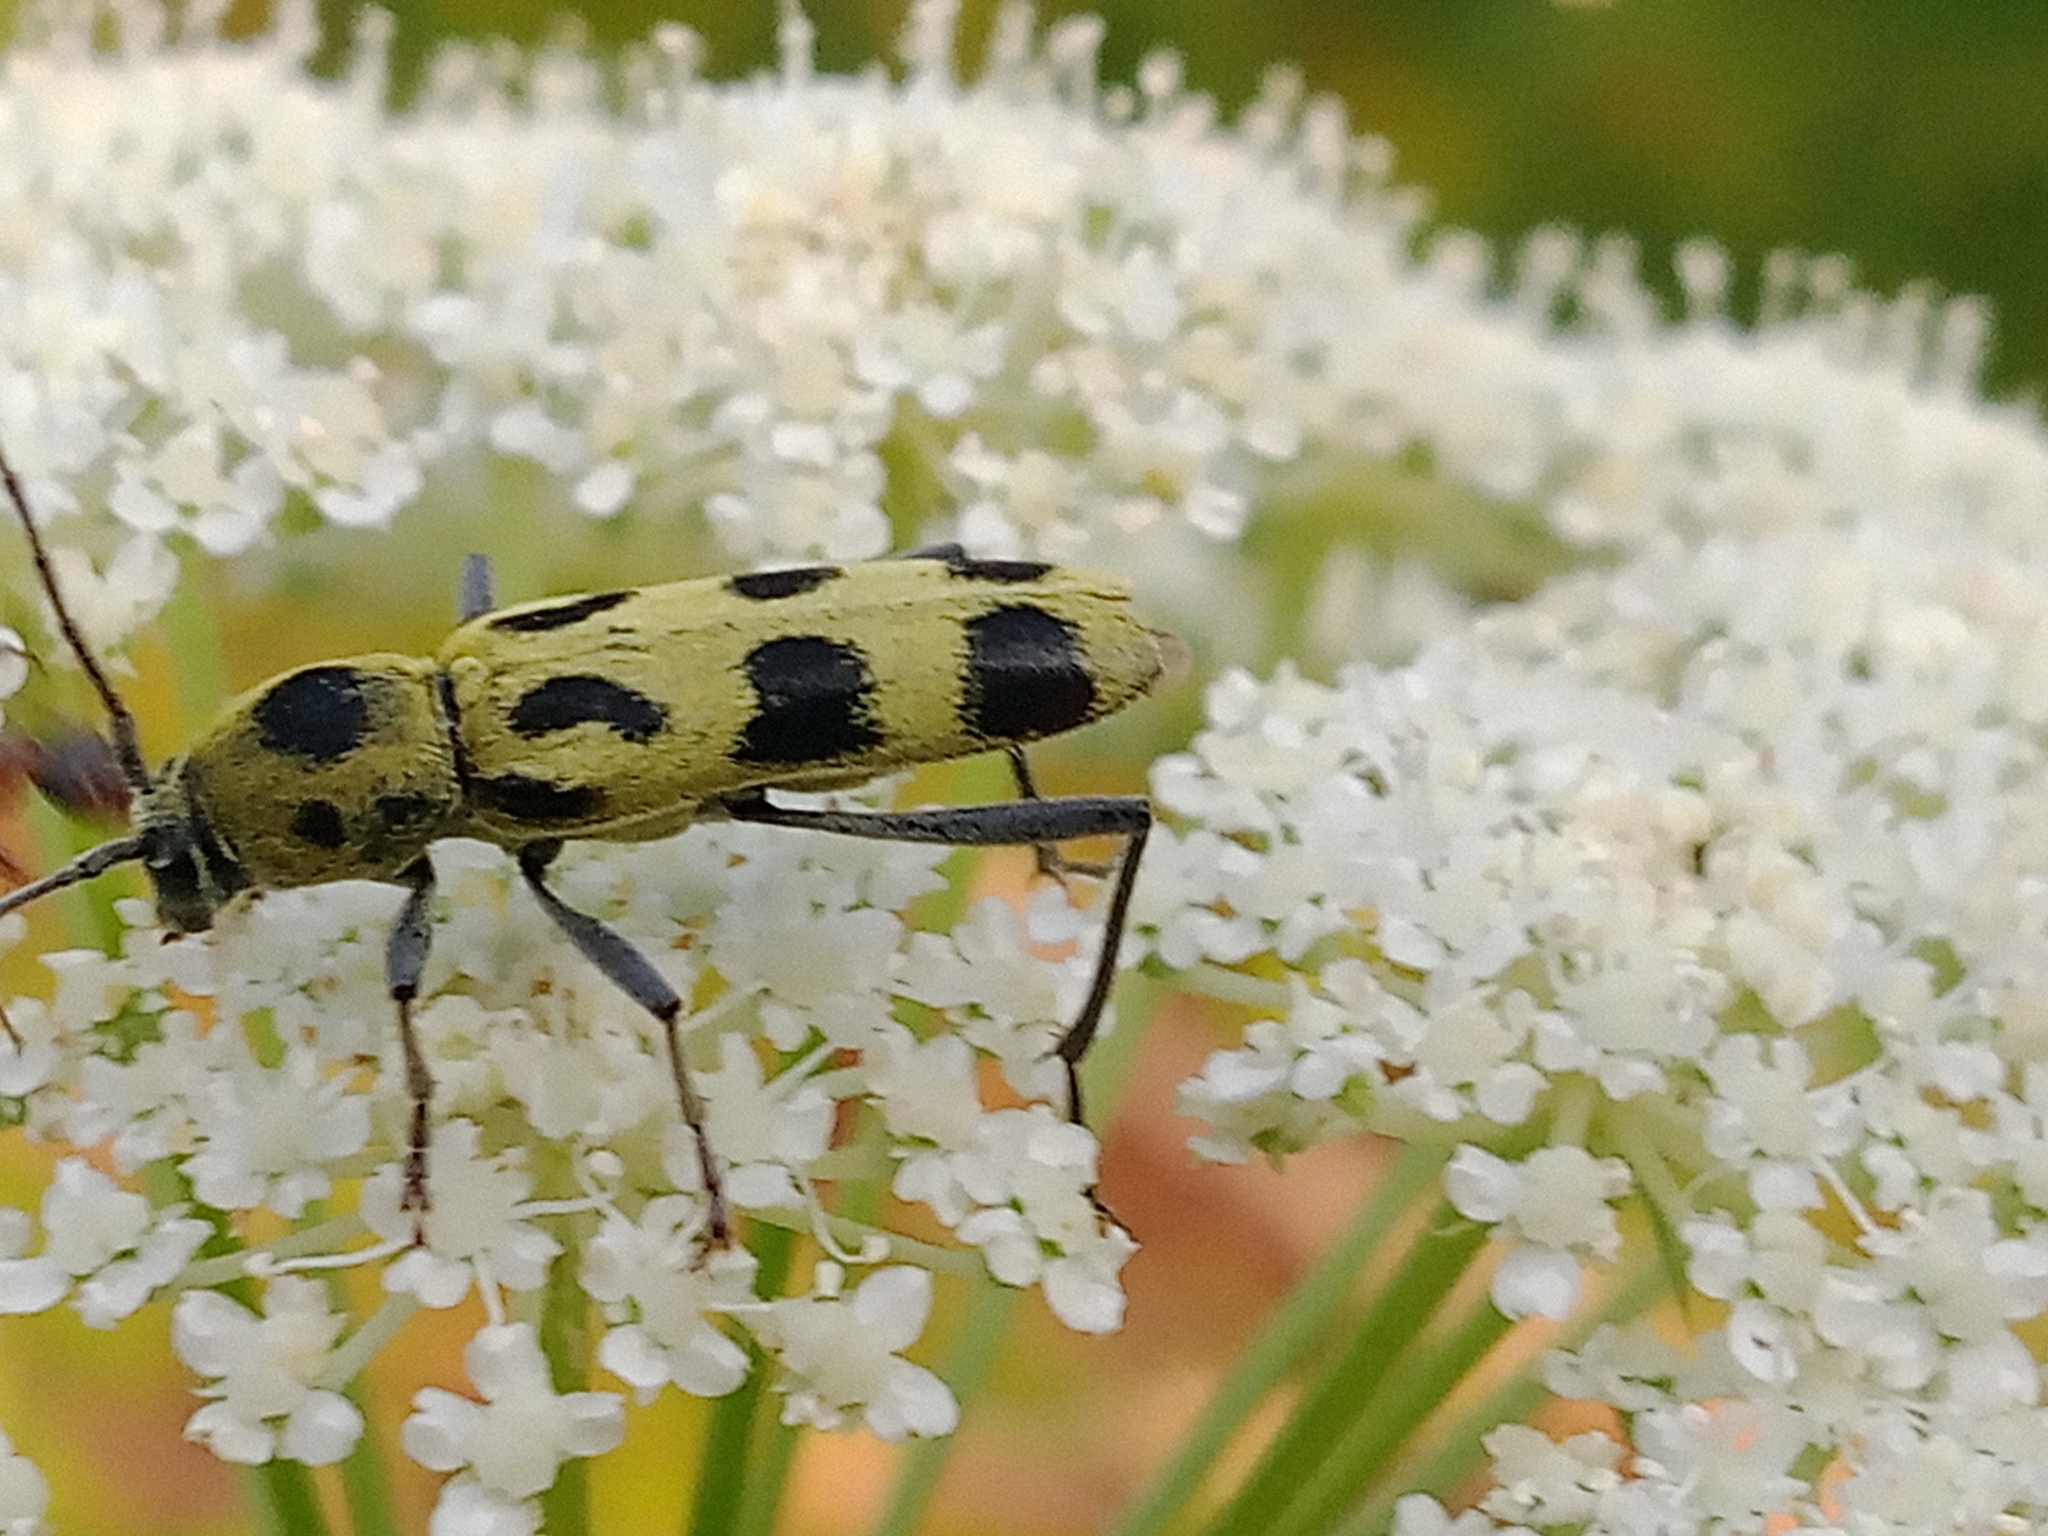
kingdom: Animalia
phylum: Arthropoda
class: Insecta
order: Coleoptera
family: Cerambycidae
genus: Chlorophorus
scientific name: Chlorophorus herbstii
